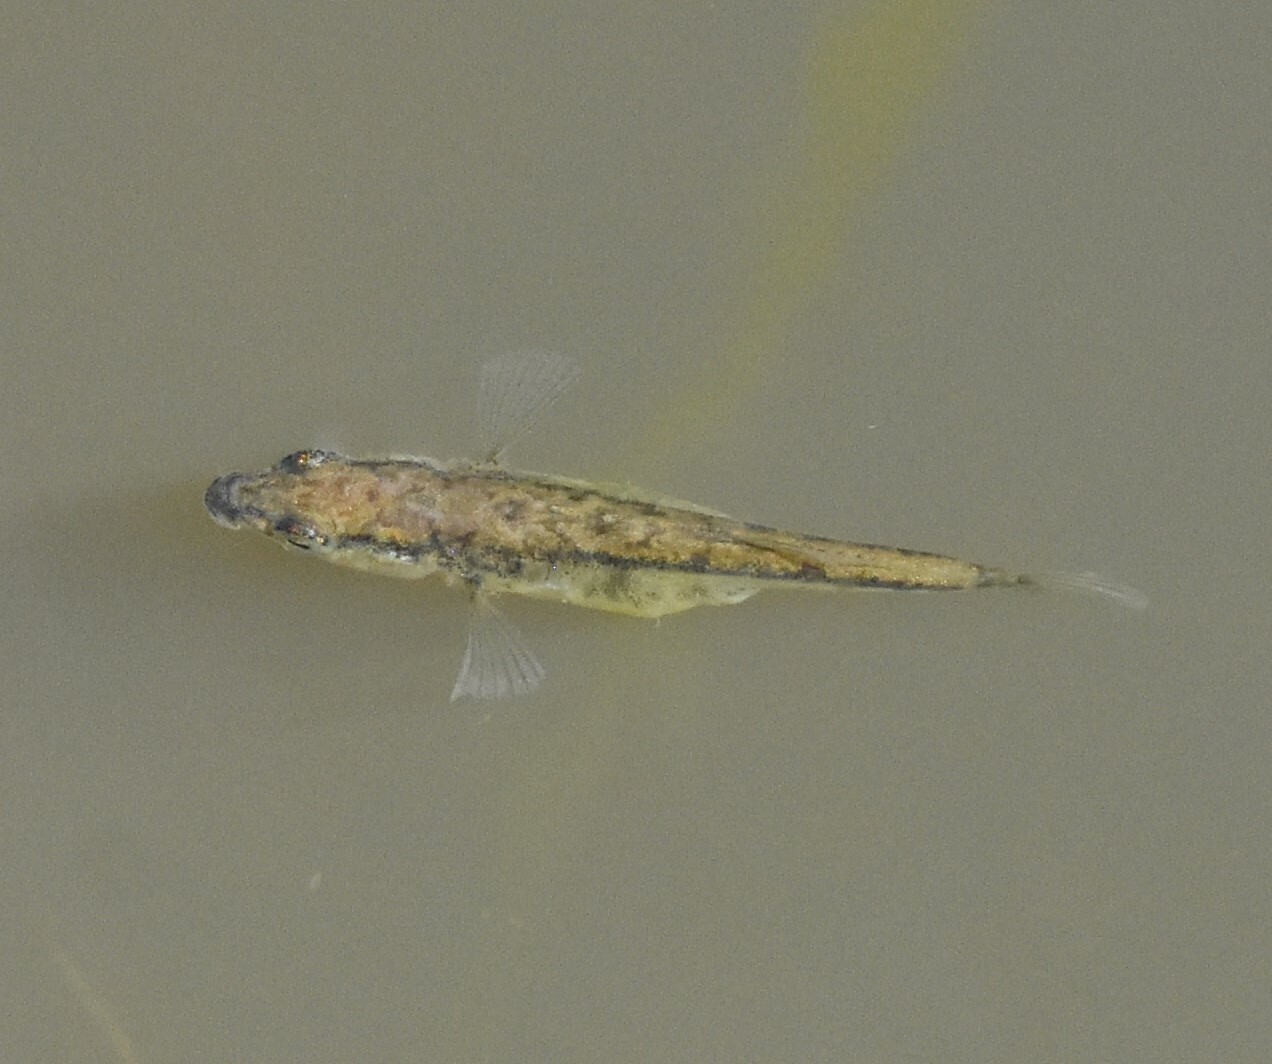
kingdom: Animalia
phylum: Chordata
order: Gasterosteiformes
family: Gasterosteidae
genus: Gasterosteus
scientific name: Gasterosteus aculeatus
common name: Three-spined stickleback
